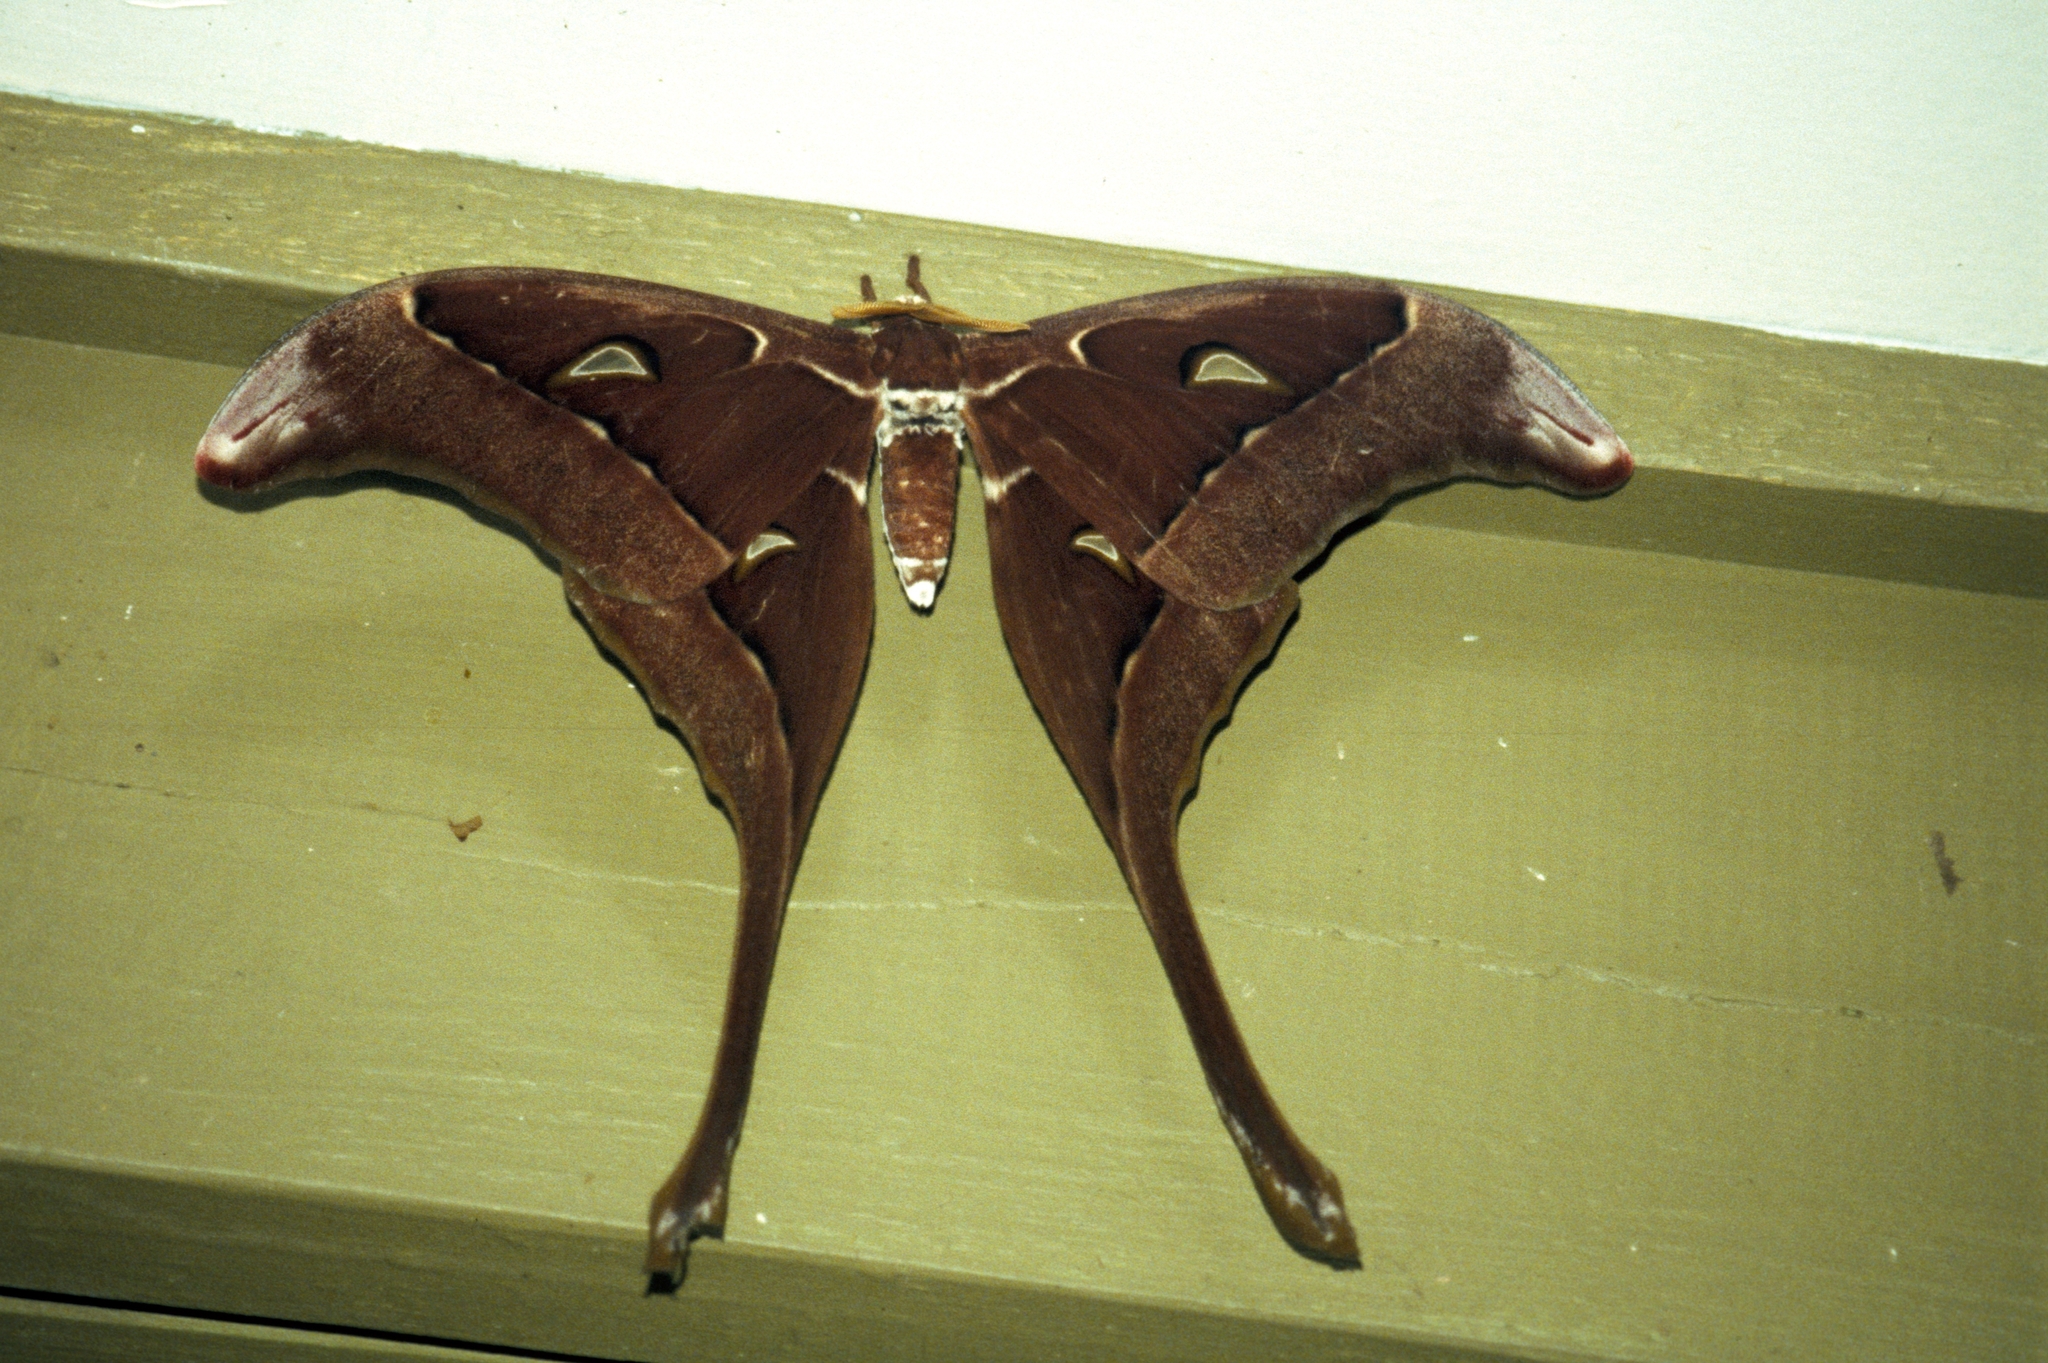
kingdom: Animalia
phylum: Arthropoda
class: Insecta
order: Lepidoptera
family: Saturniidae
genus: Coscinocera
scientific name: Coscinocera hercules
